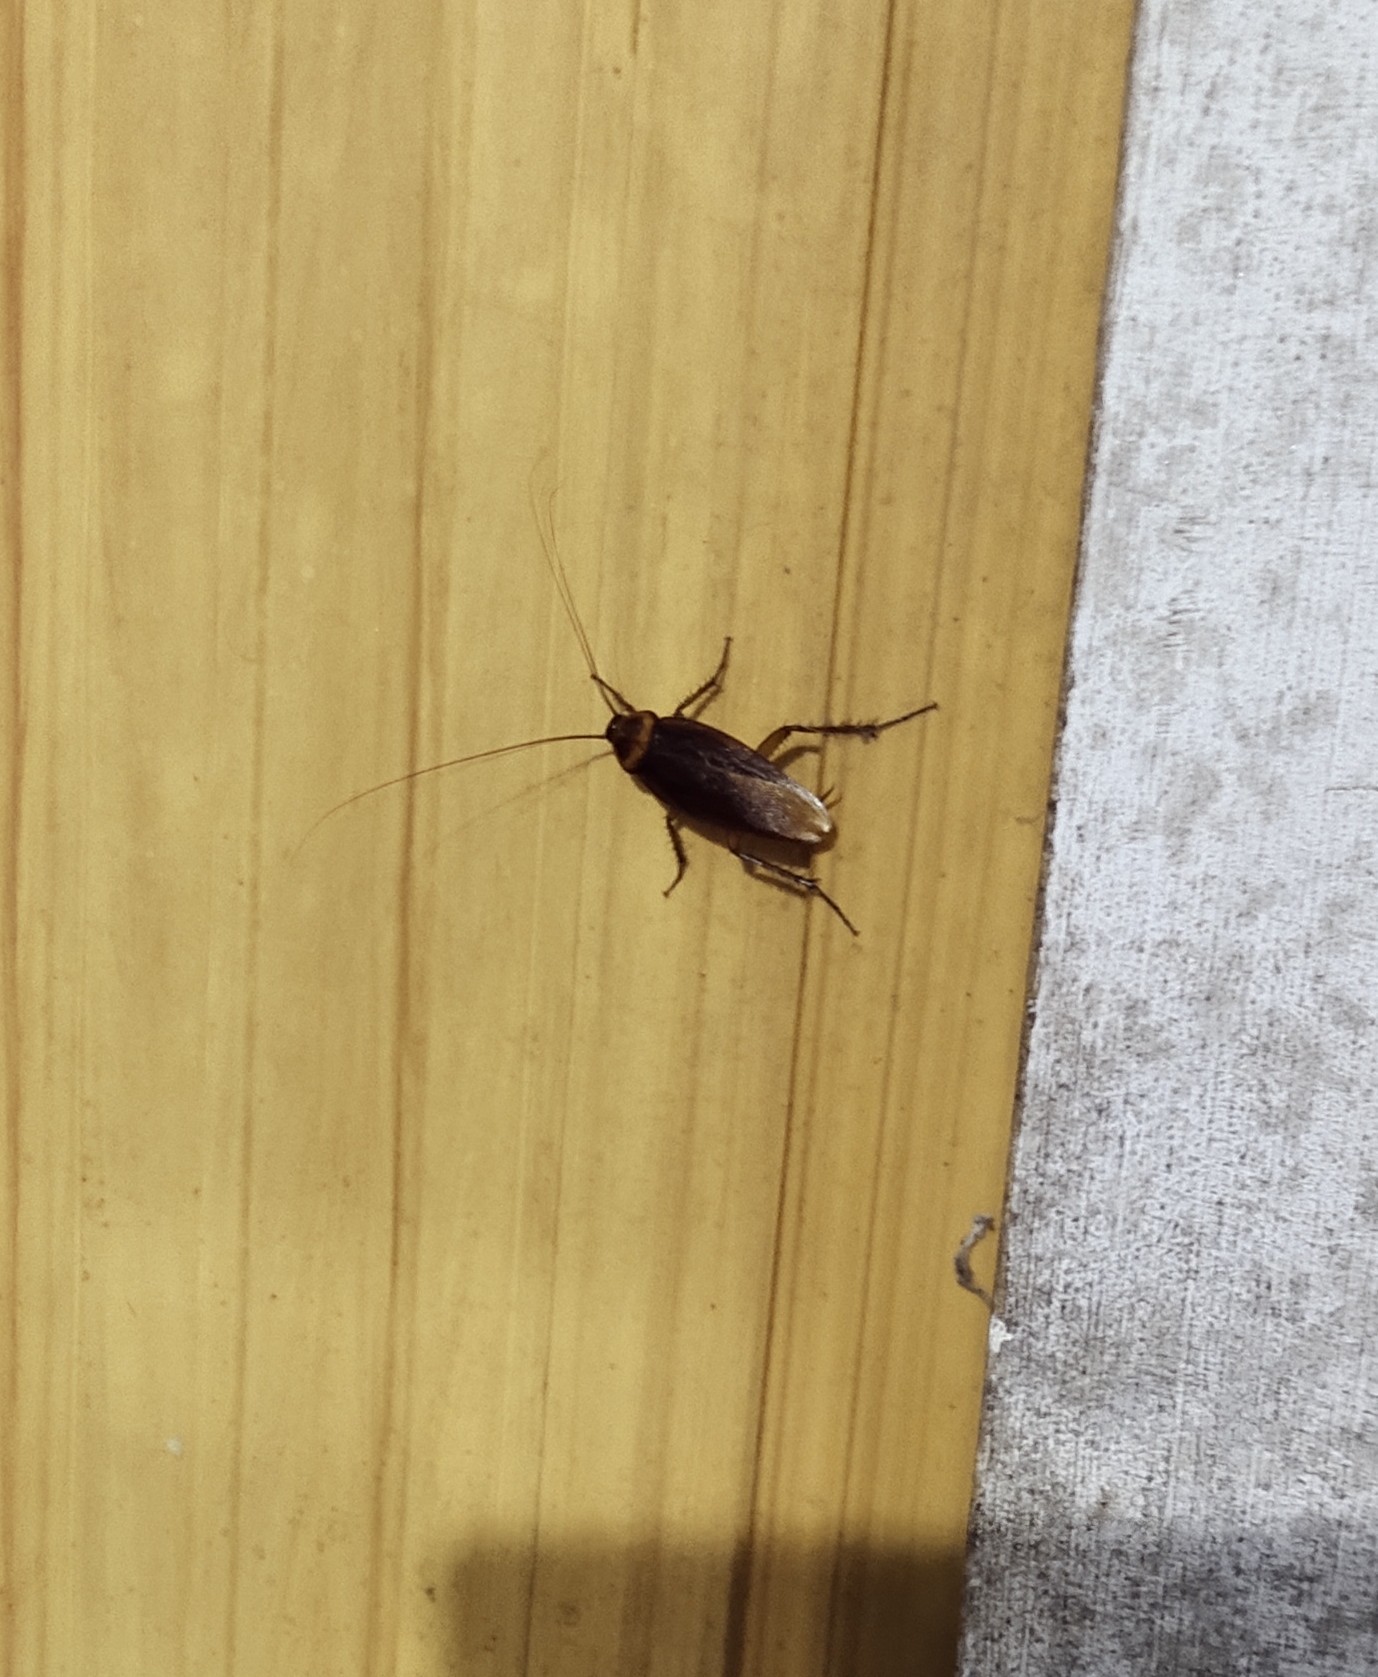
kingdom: Animalia
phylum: Arthropoda
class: Insecta
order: Blattodea
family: Blattidae
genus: Periplaneta
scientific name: Periplaneta americana
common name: American cockroach
